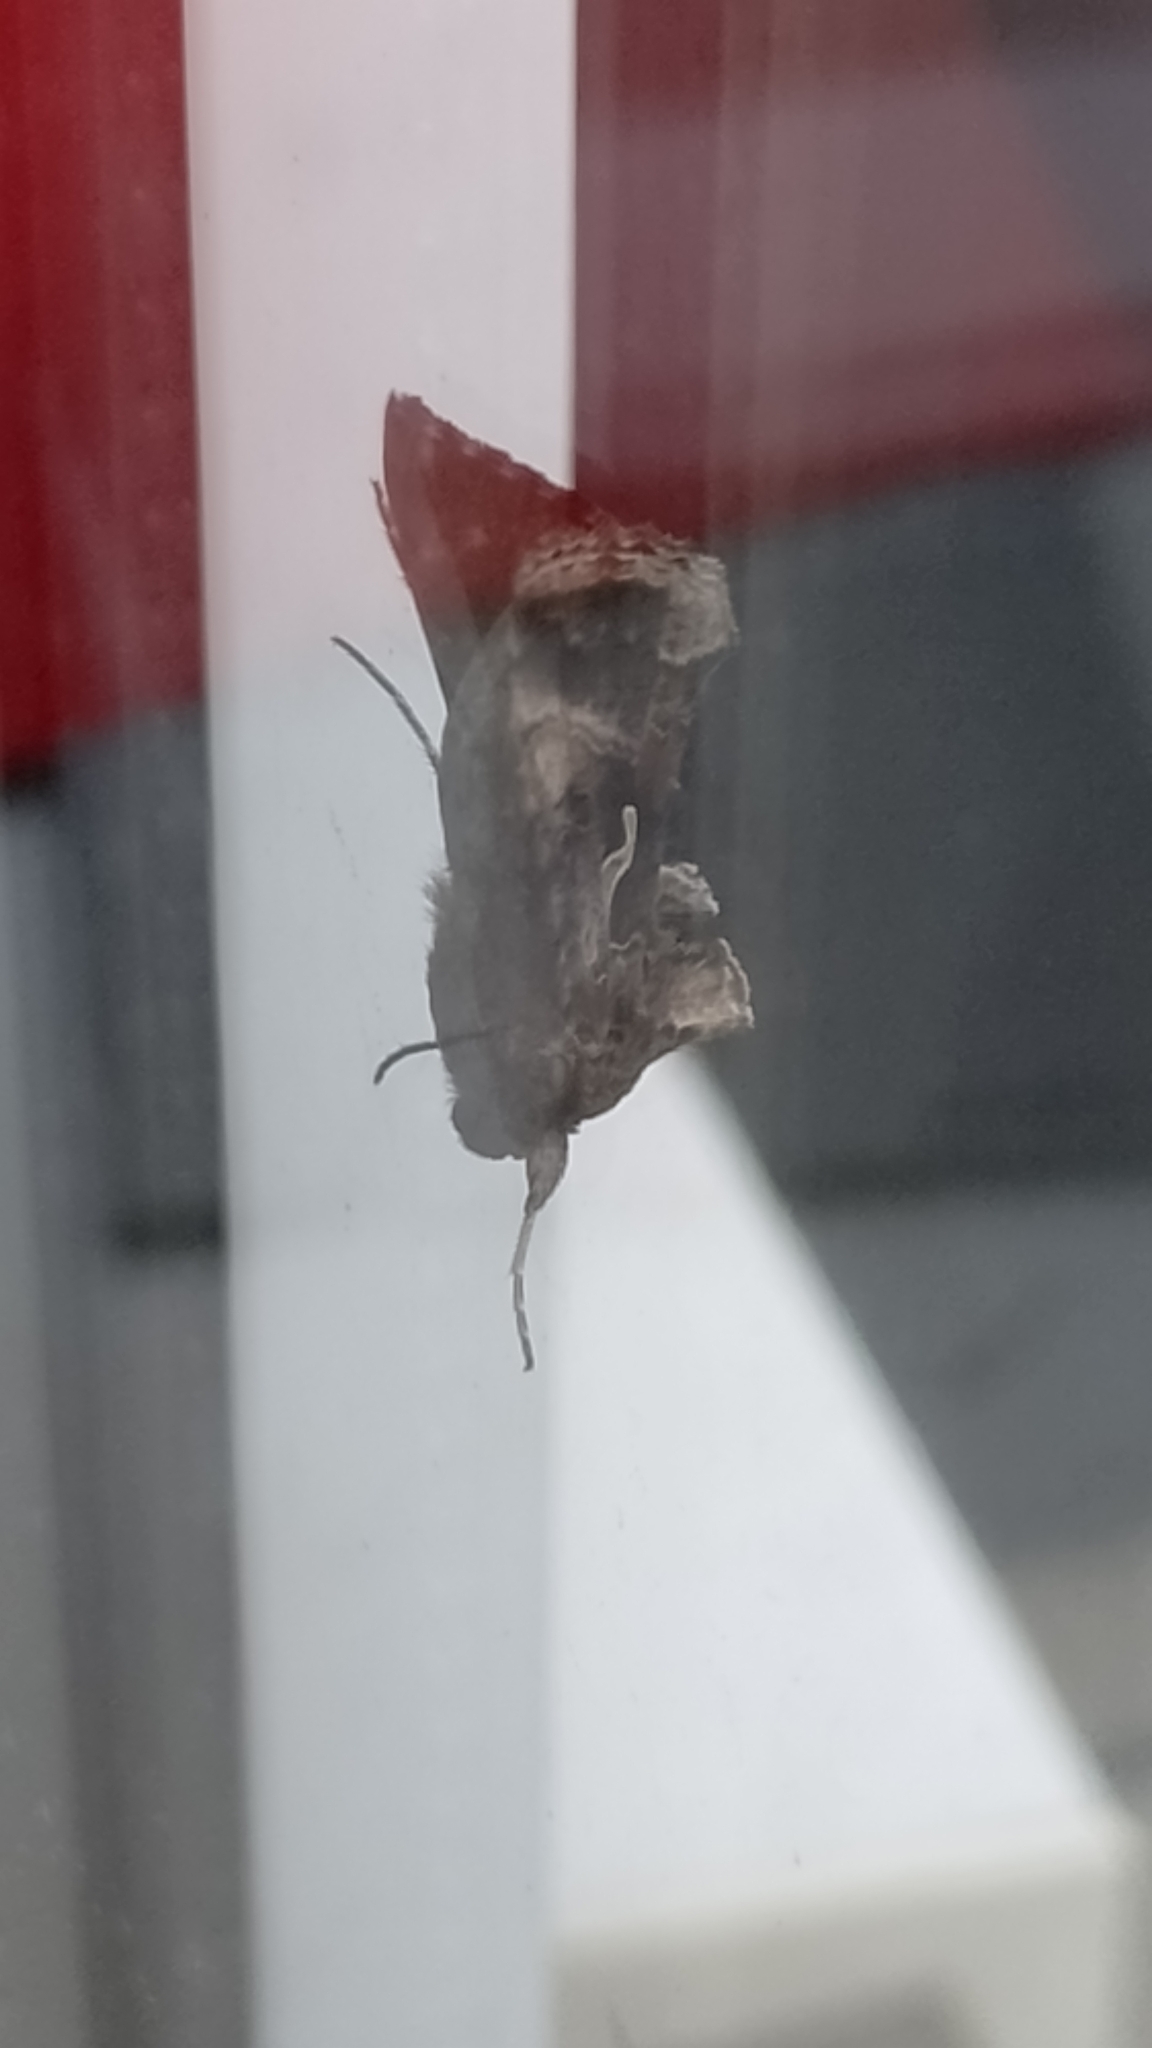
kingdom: Animalia
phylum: Arthropoda
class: Insecta
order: Lepidoptera
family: Noctuidae
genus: Autographa
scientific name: Autographa gamma
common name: Silver y
